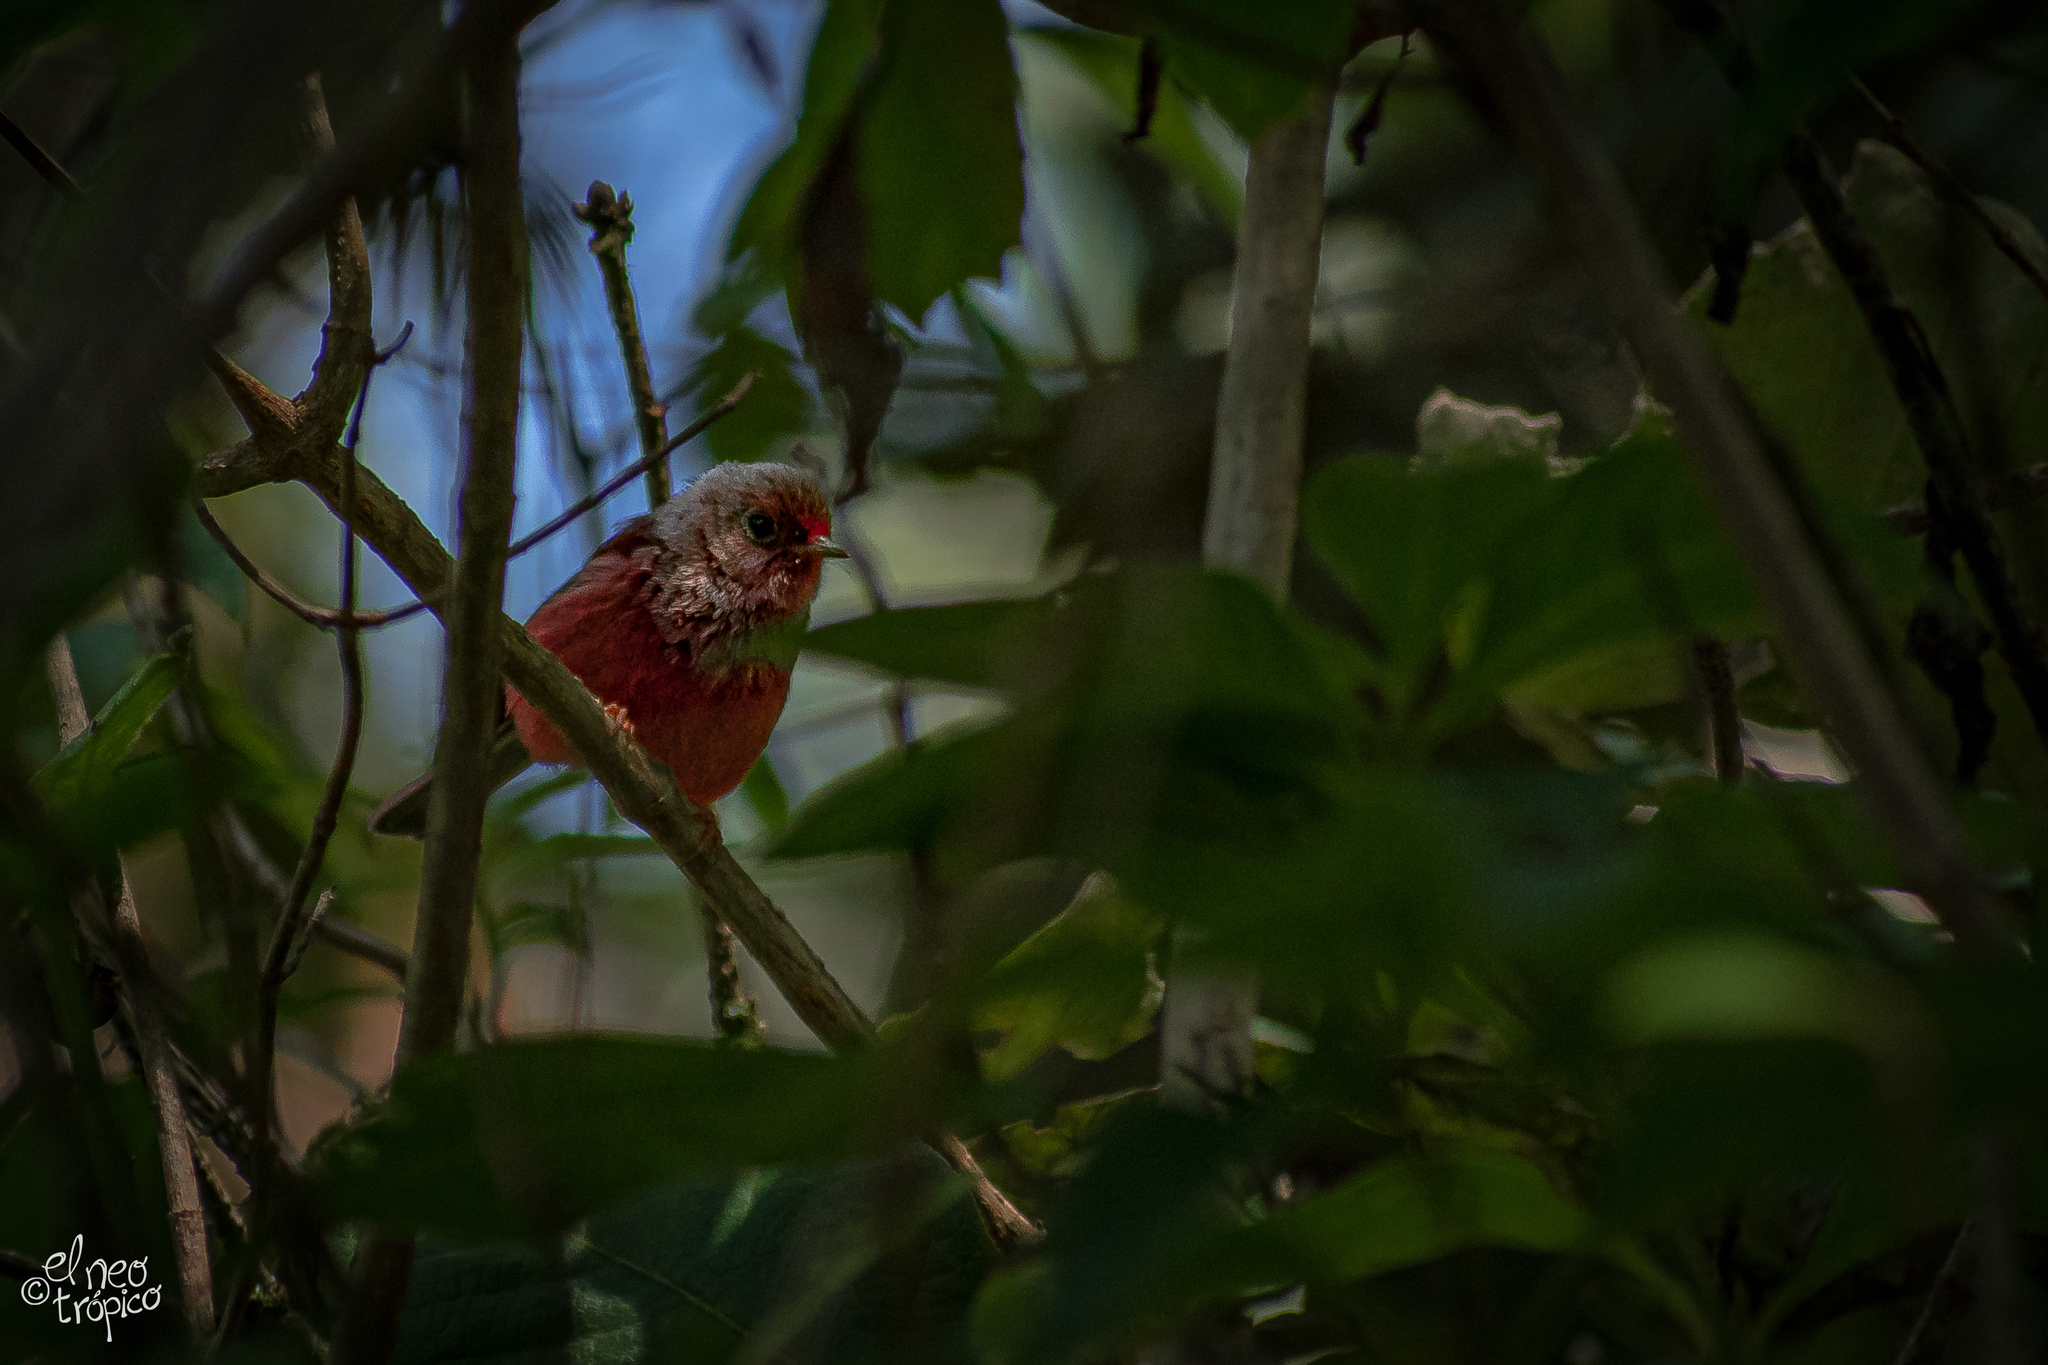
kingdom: Animalia
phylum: Chordata
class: Aves
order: Passeriformes
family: Parulidae
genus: Cardellina
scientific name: Cardellina versicolor
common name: Pink-headed warbler
